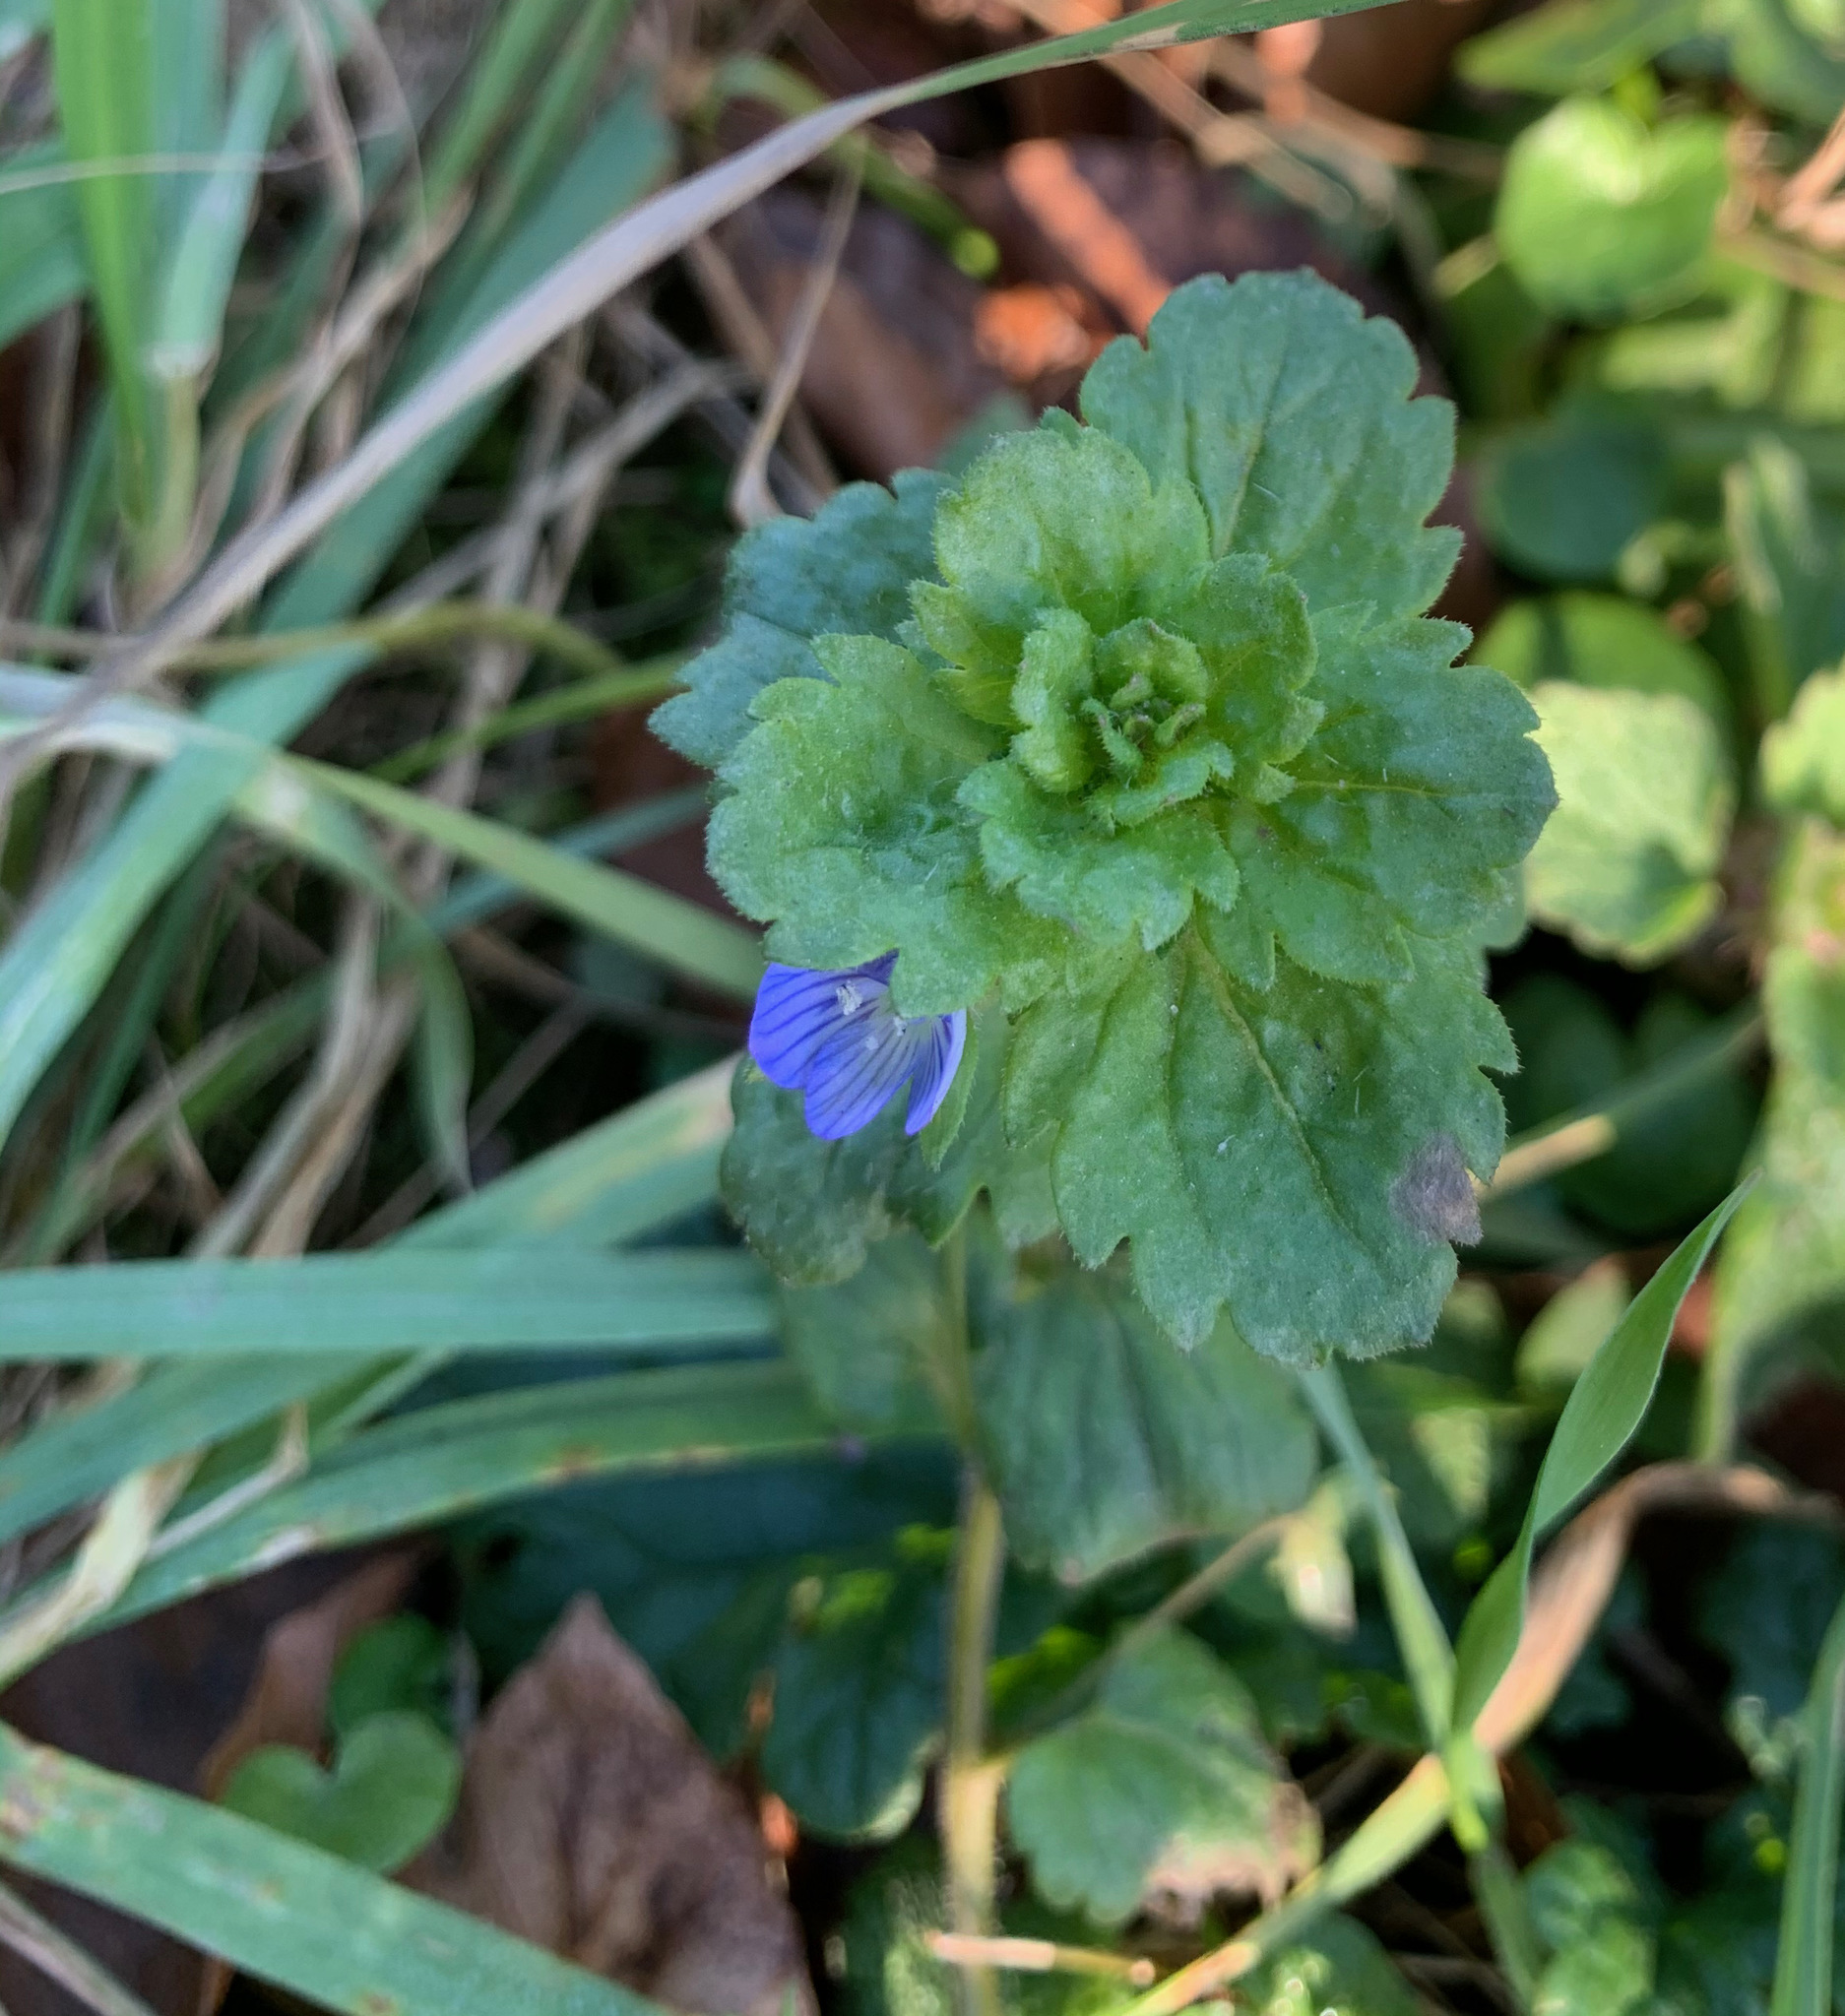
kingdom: Plantae
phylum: Tracheophyta
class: Magnoliopsida
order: Lamiales
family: Plantaginaceae
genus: Veronica
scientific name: Veronica persica
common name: Common field-speedwell
